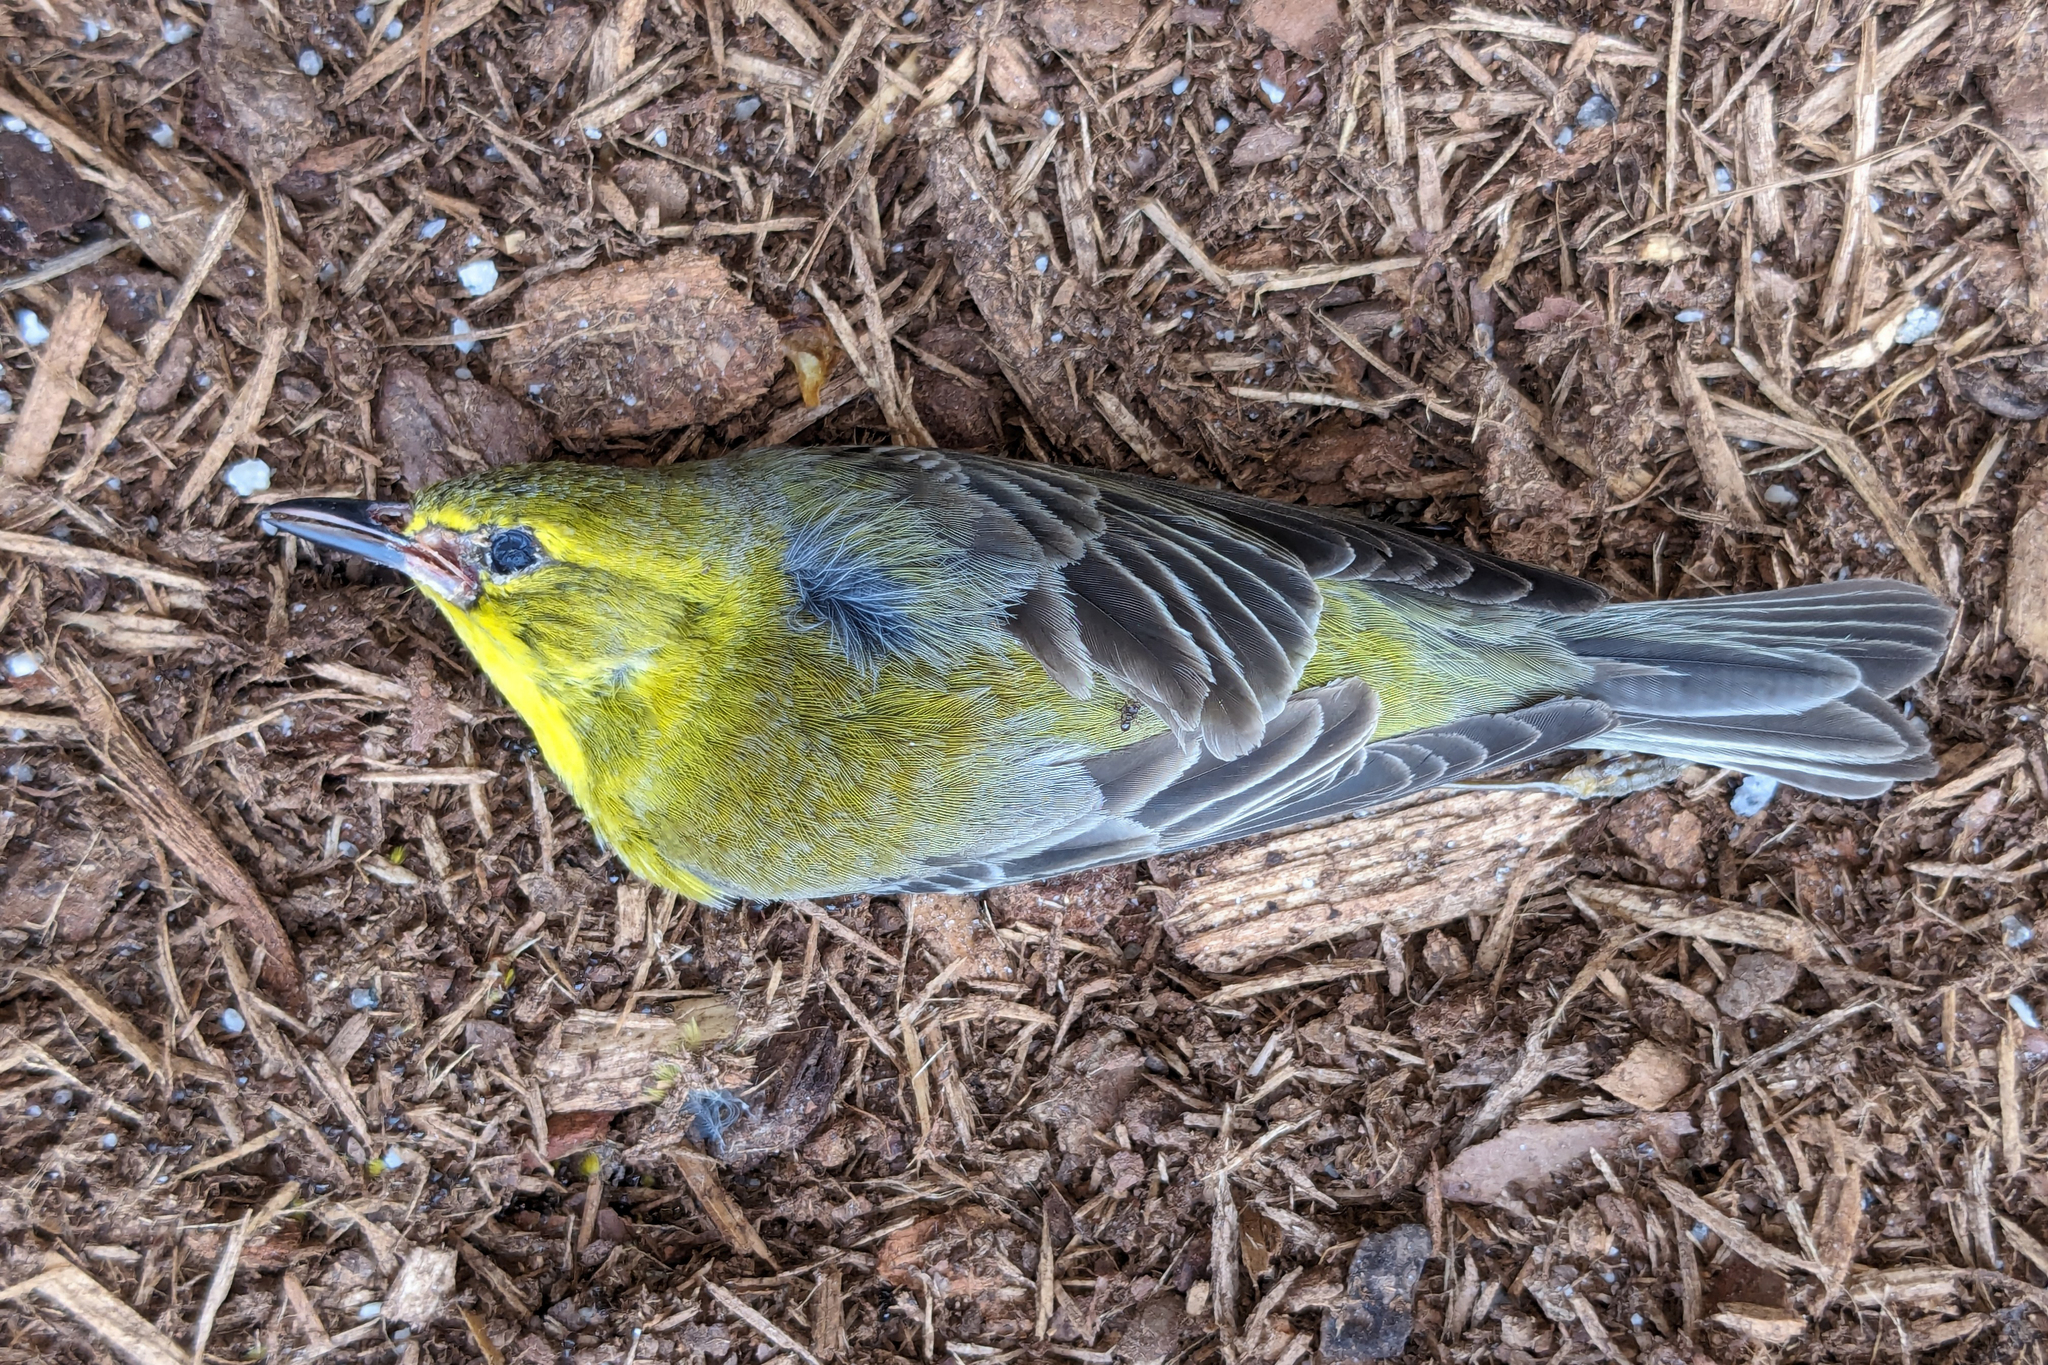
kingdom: Animalia
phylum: Chordata
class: Aves
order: Passeriformes
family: Parulidae
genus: Setophaga
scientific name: Setophaga pinus
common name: Pine warbler
